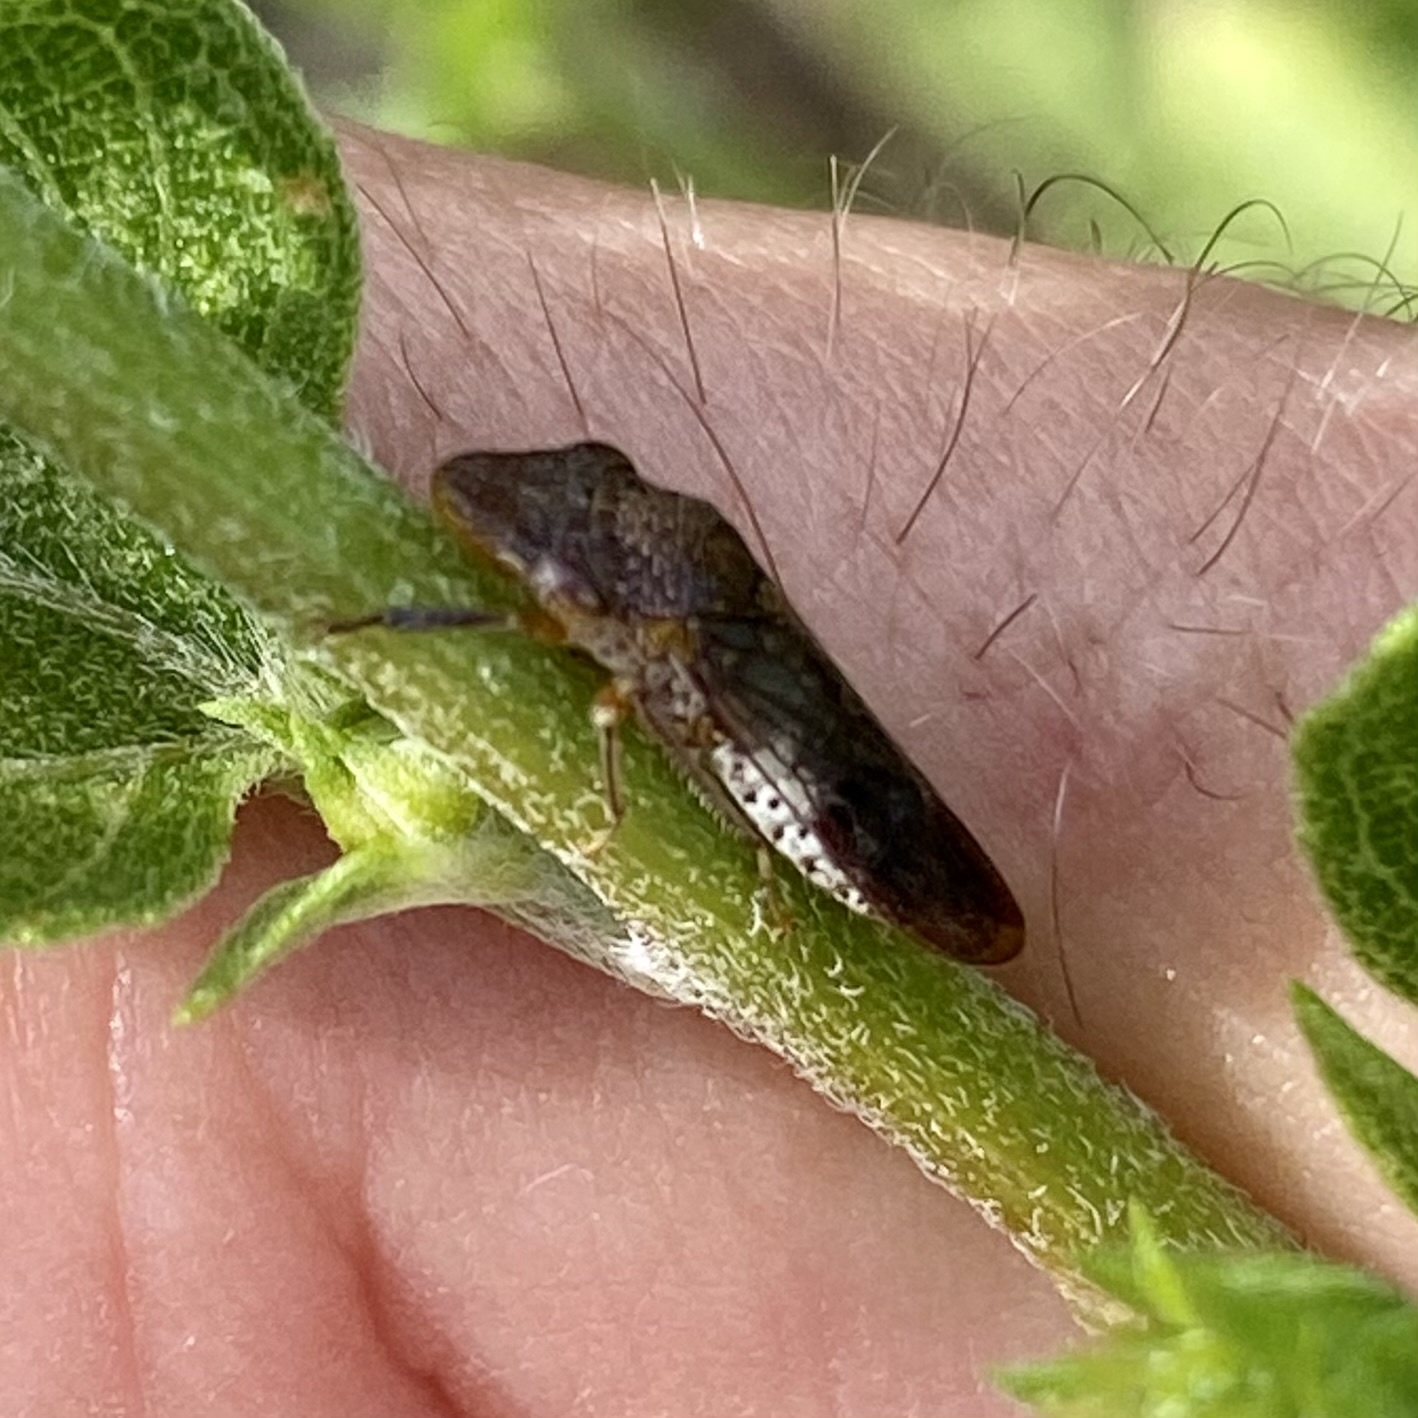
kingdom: Animalia
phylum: Arthropoda
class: Insecta
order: Hemiptera
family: Cicadellidae
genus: Homalodisca
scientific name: Homalodisca vitripennis
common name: Glassy-winged sharpshooter
